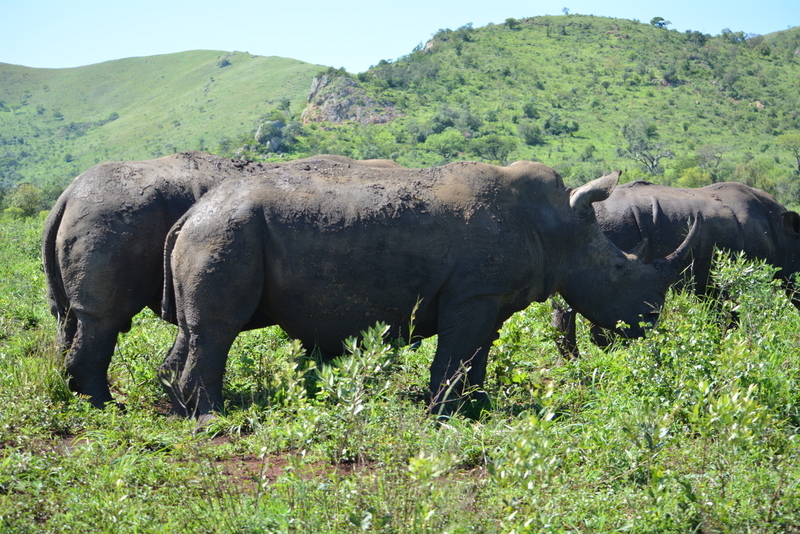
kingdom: Animalia
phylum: Chordata
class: Mammalia
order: Perissodactyla
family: Rhinocerotidae
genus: Ceratotherium
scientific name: Ceratotherium simum
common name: White rhinoceros
